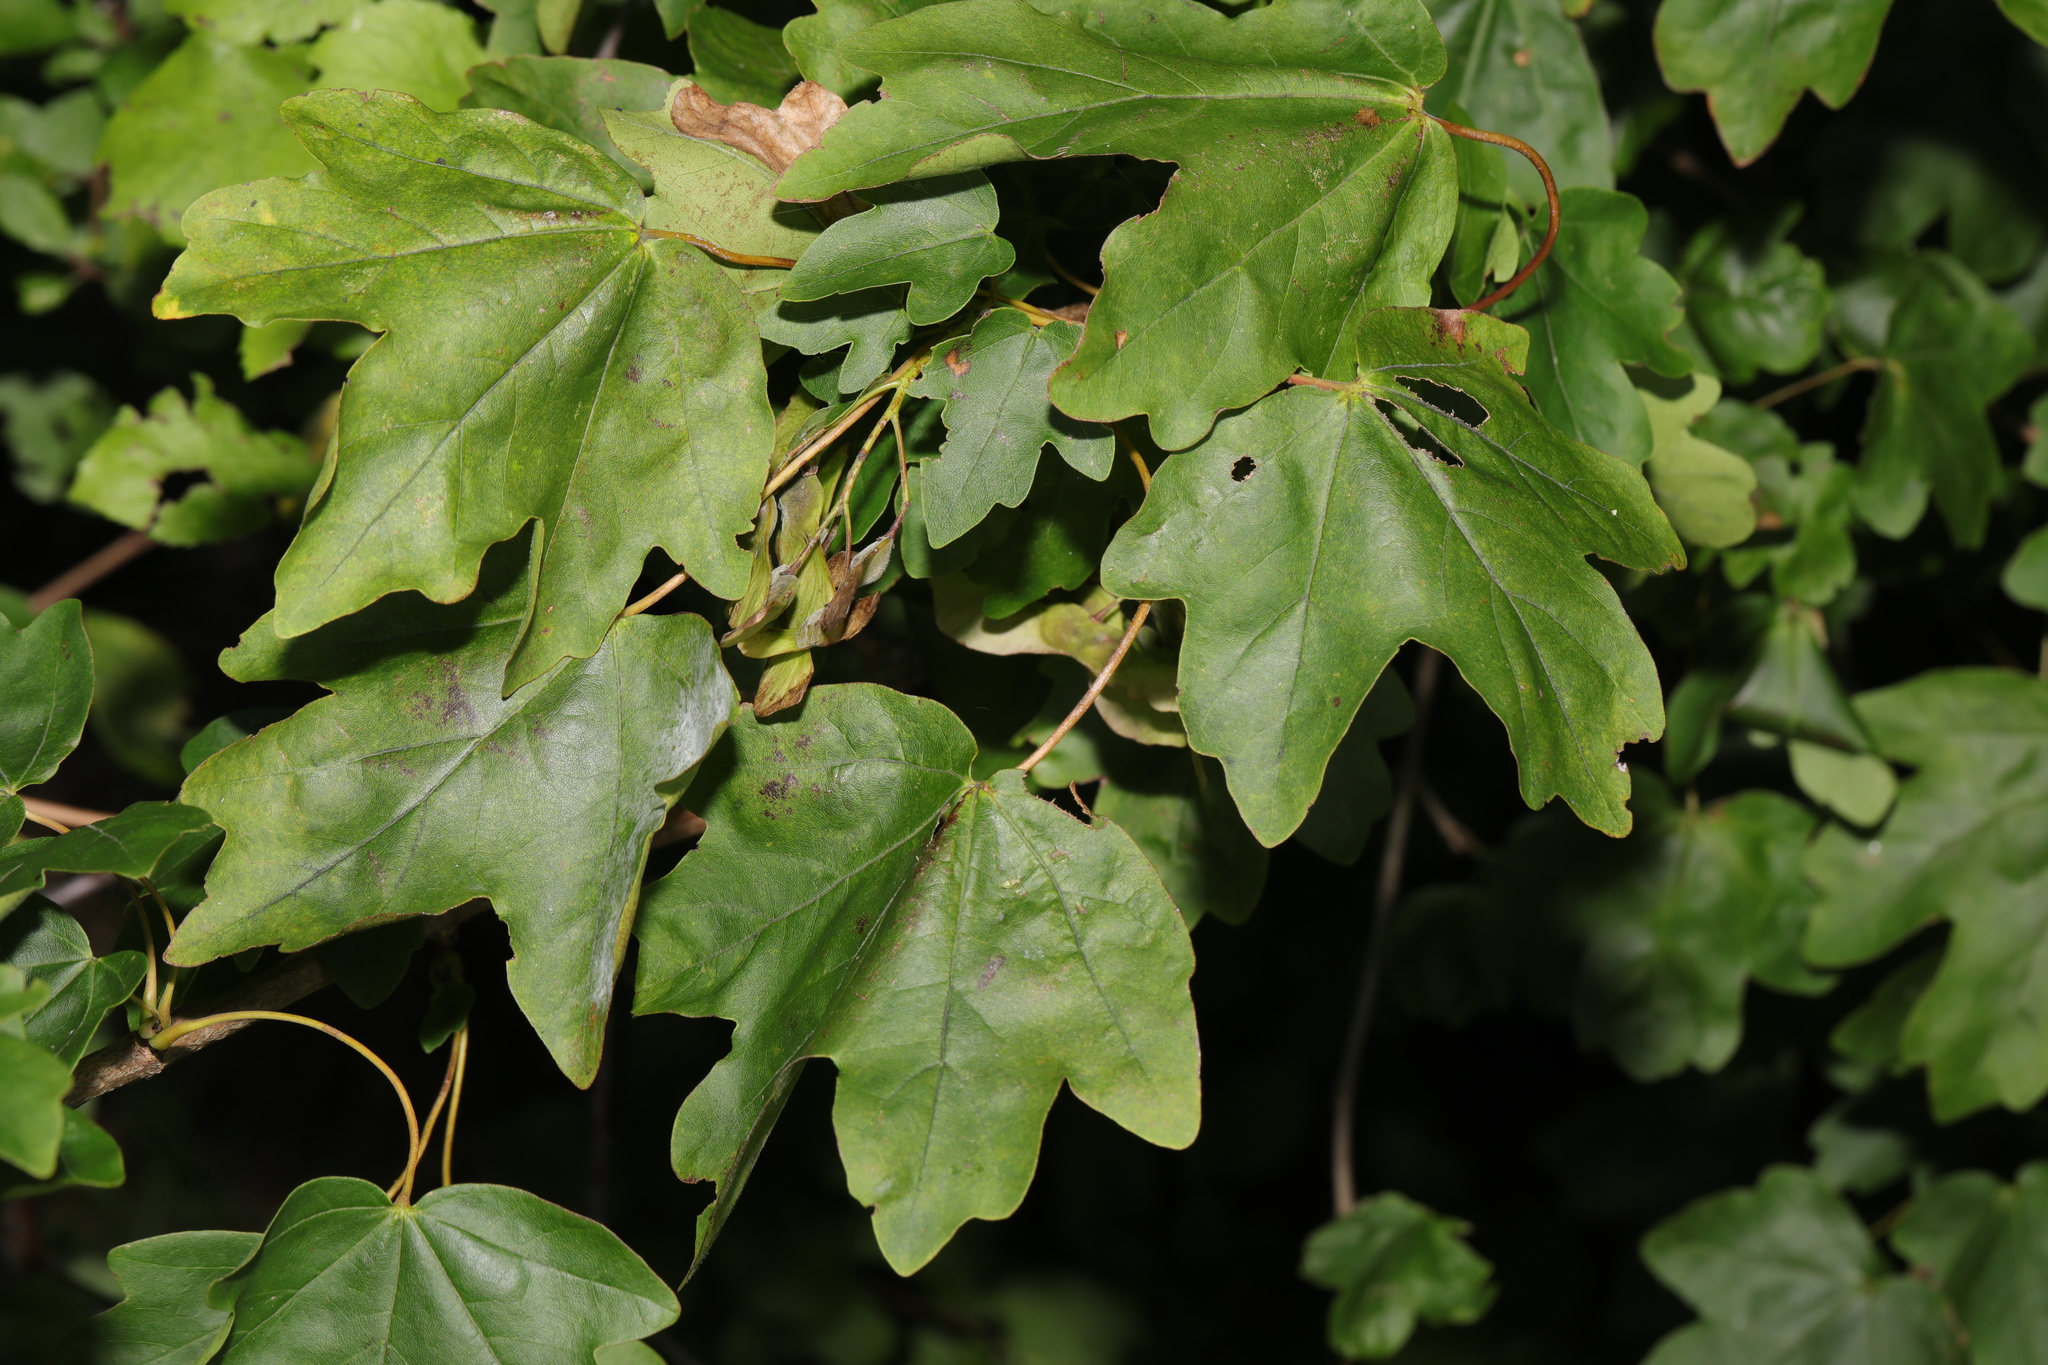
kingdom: Plantae
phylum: Tracheophyta
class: Magnoliopsida
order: Sapindales
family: Sapindaceae
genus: Acer
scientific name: Acer campestre
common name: Field maple
